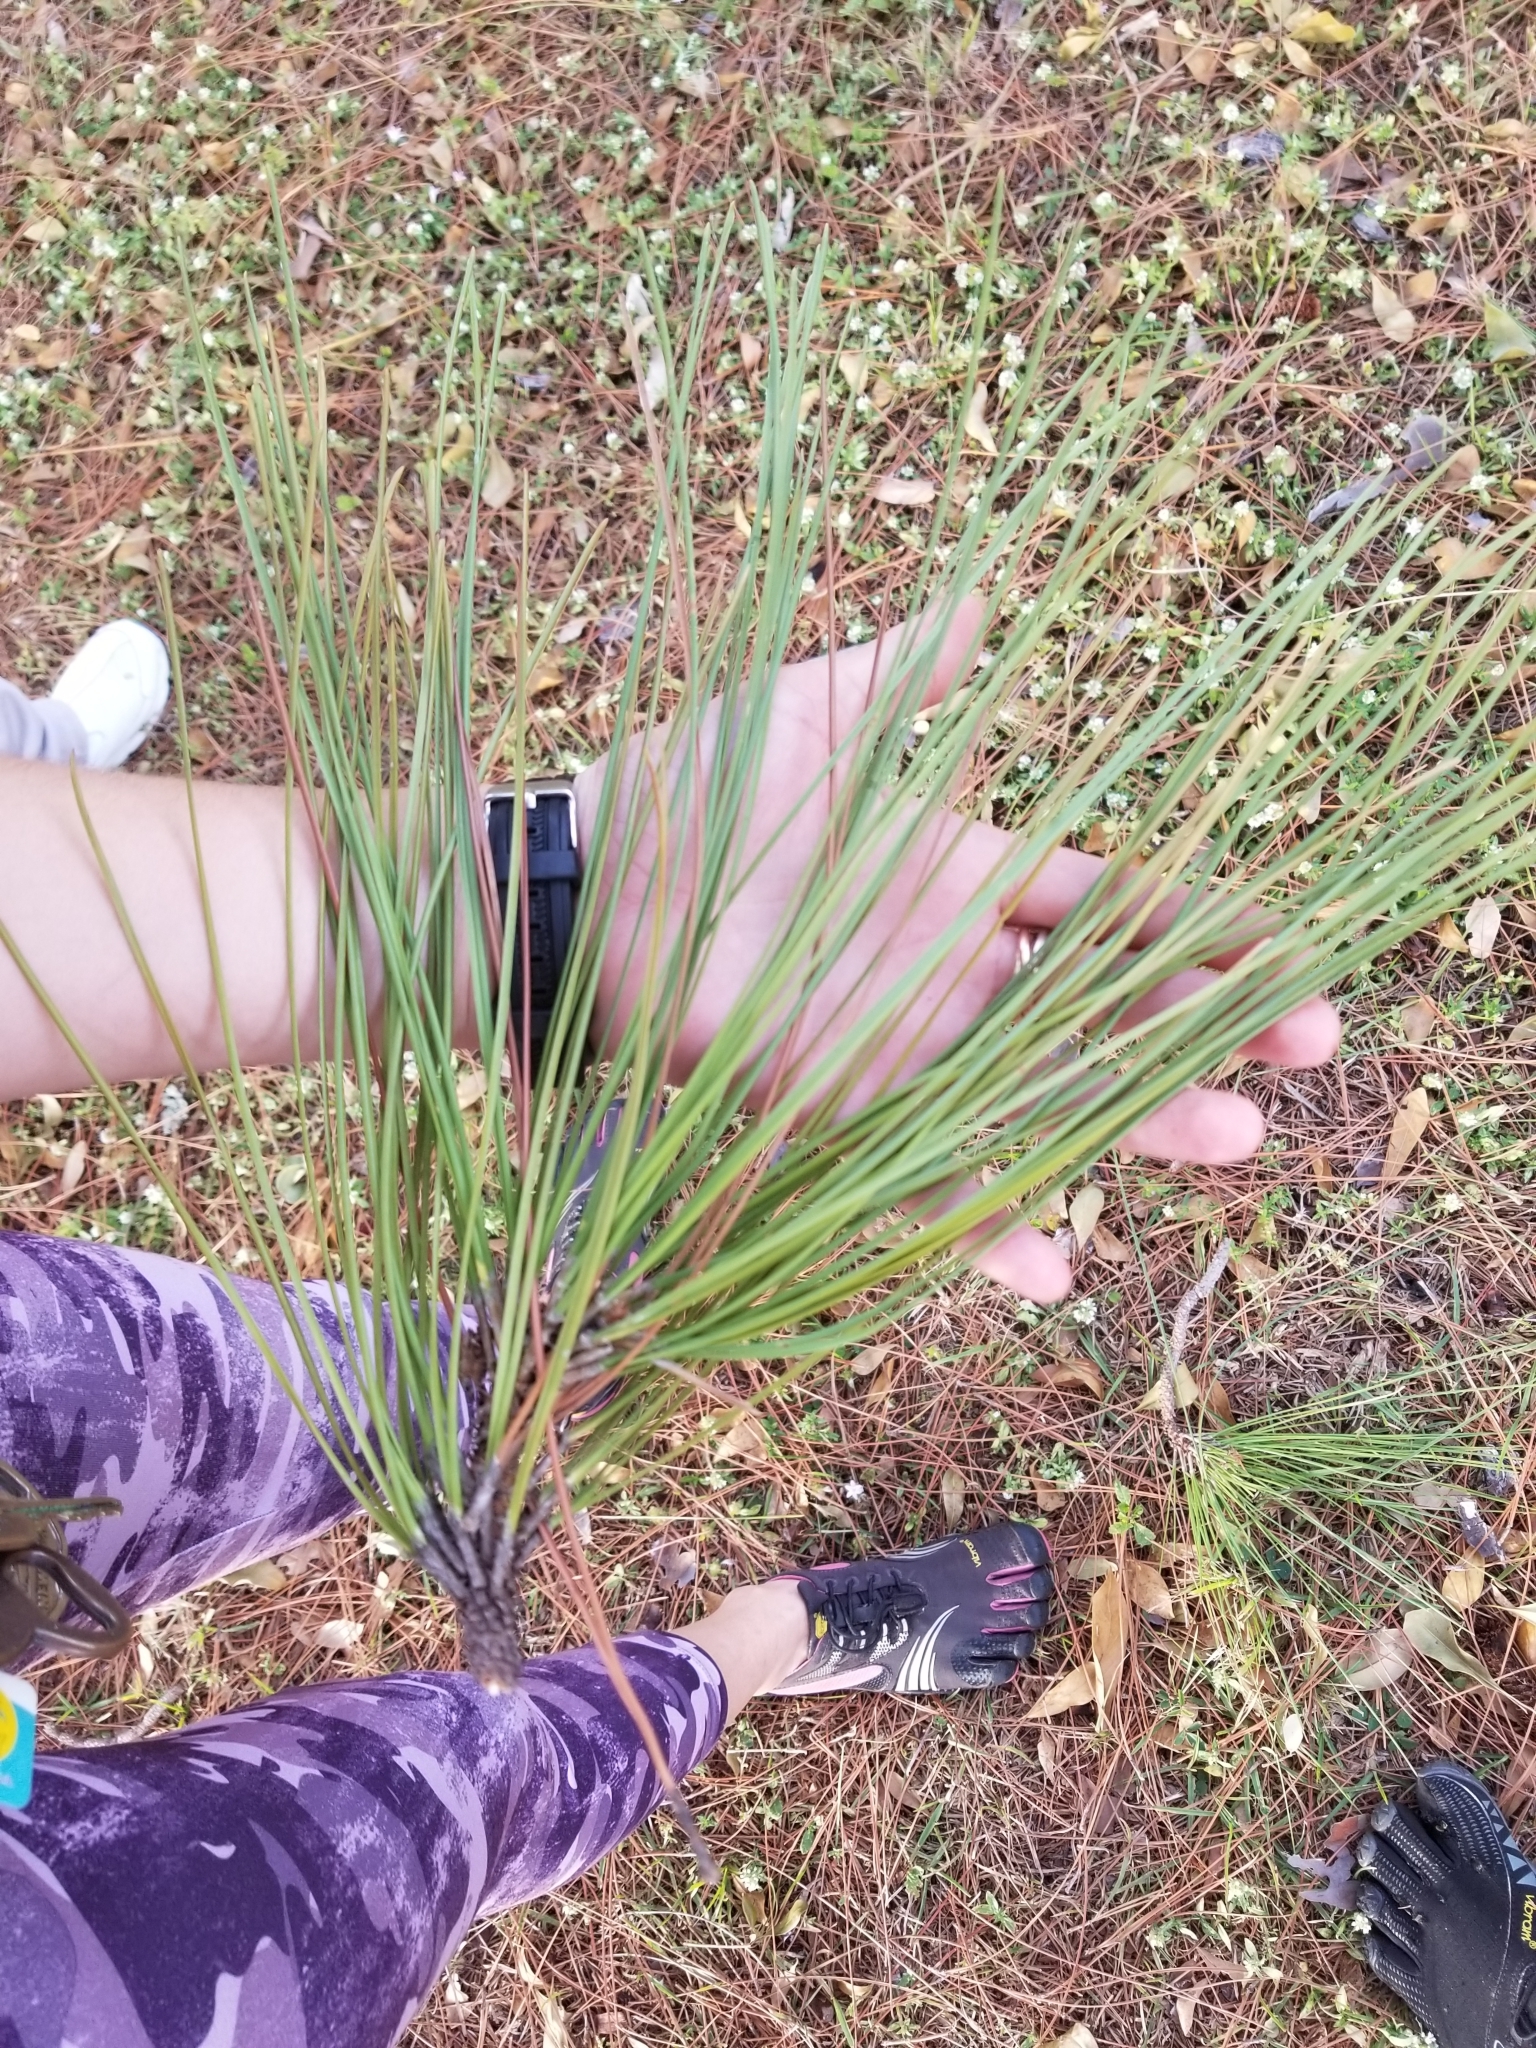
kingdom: Plantae
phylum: Tracheophyta
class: Pinopsida
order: Pinales
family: Pinaceae
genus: Pinus
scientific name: Pinus elliottii
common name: Slash pine
